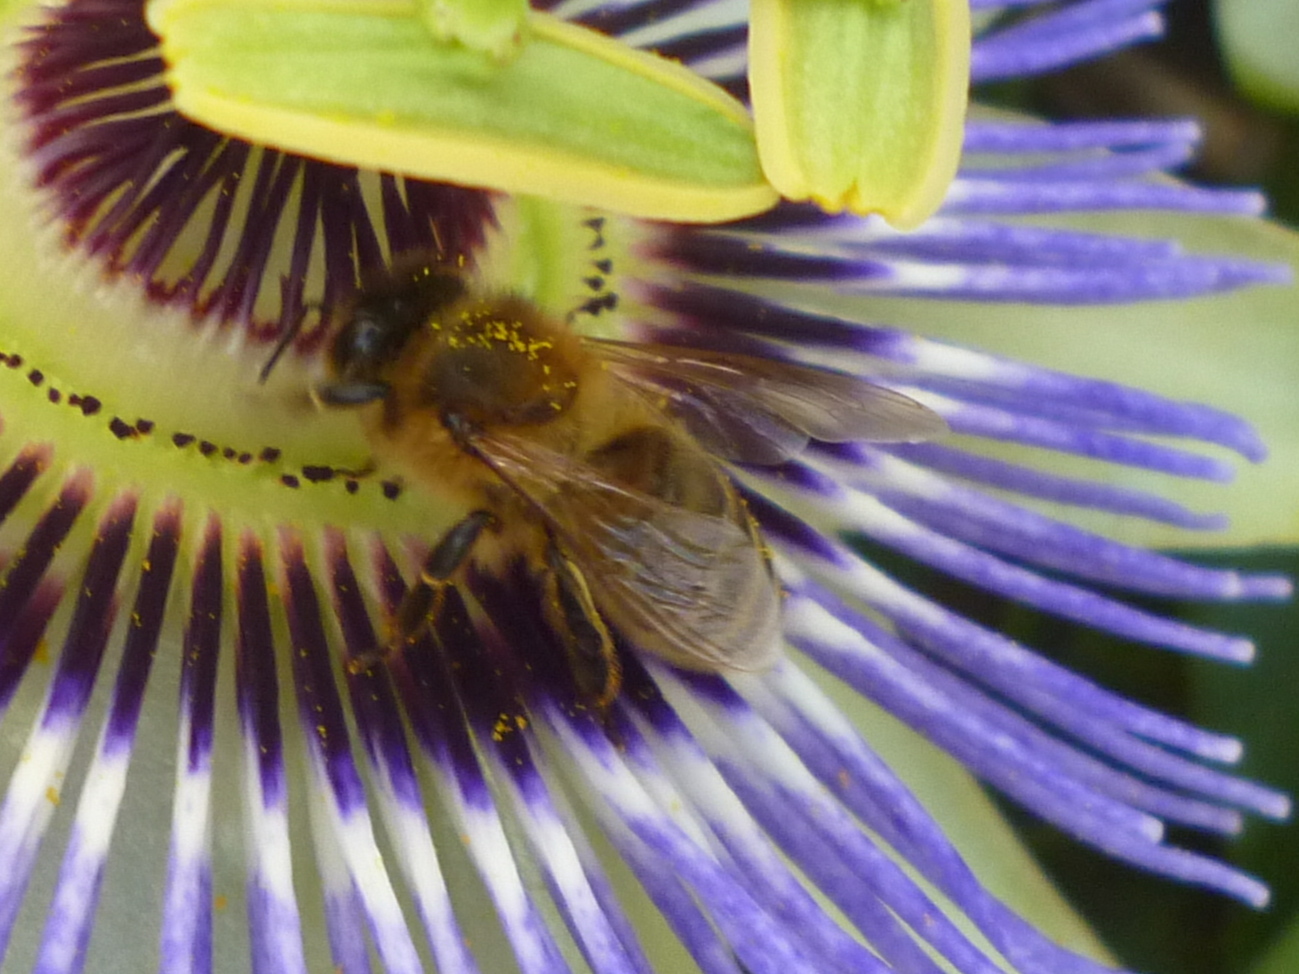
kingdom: Animalia
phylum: Arthropoda
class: Insecta
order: Hymenoptera
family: Apidae
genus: Apis
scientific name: Apis mellifera
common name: Honey bee
